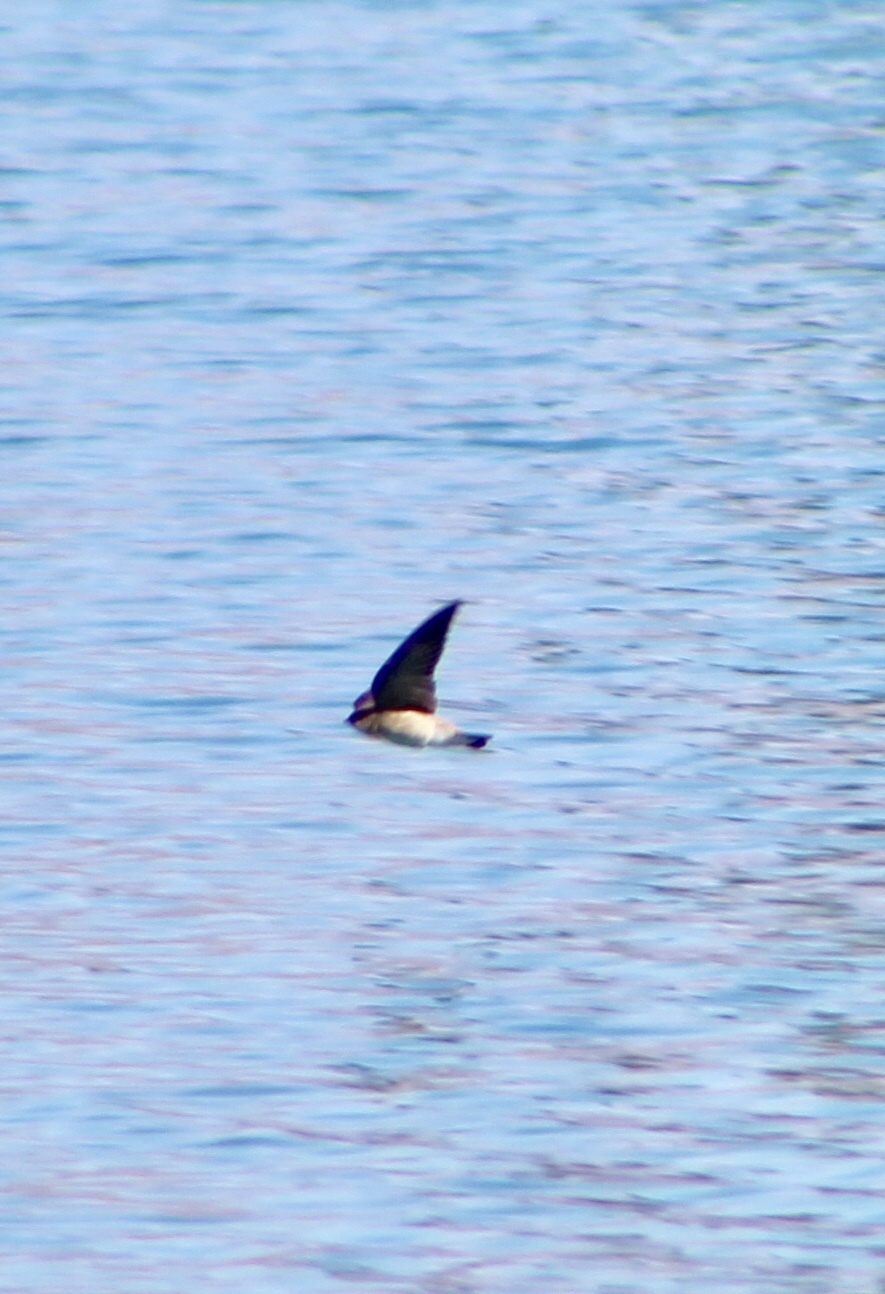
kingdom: Animalia
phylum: Chordata
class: Aves
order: Passeriformes
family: Hirundinidae
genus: Stelgidopteryx
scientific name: Stelgidopteryx serripennis
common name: Northern rough-winged swallow
